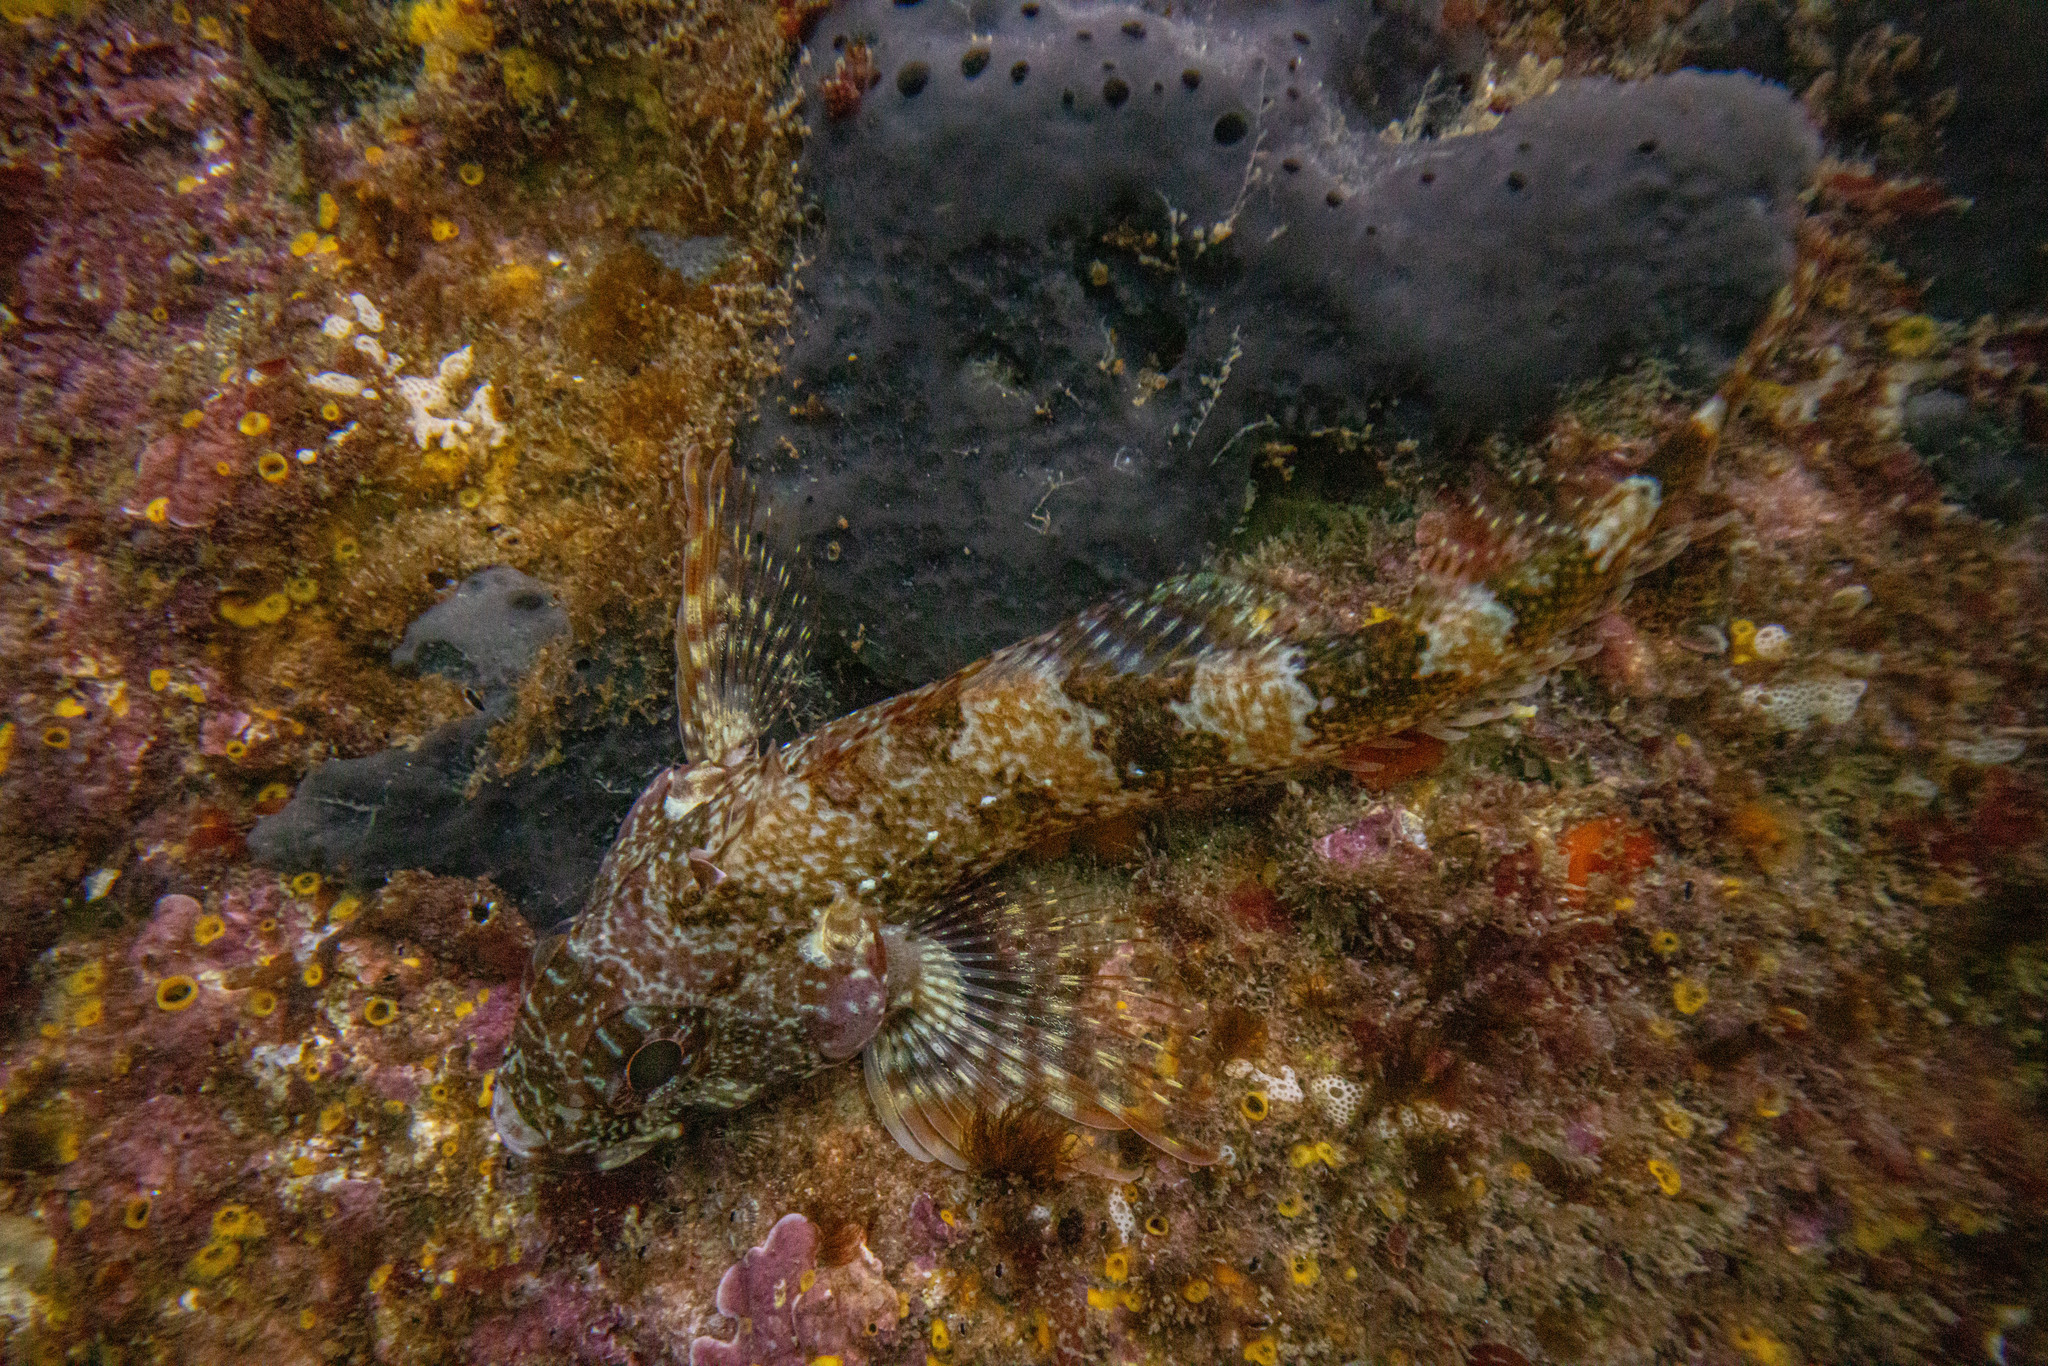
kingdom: Animalia
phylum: Chordata
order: Perciformes
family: Tripterygiidae
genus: Karalepis
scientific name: Karalepis stewarti
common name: Scaly headed triplefin
